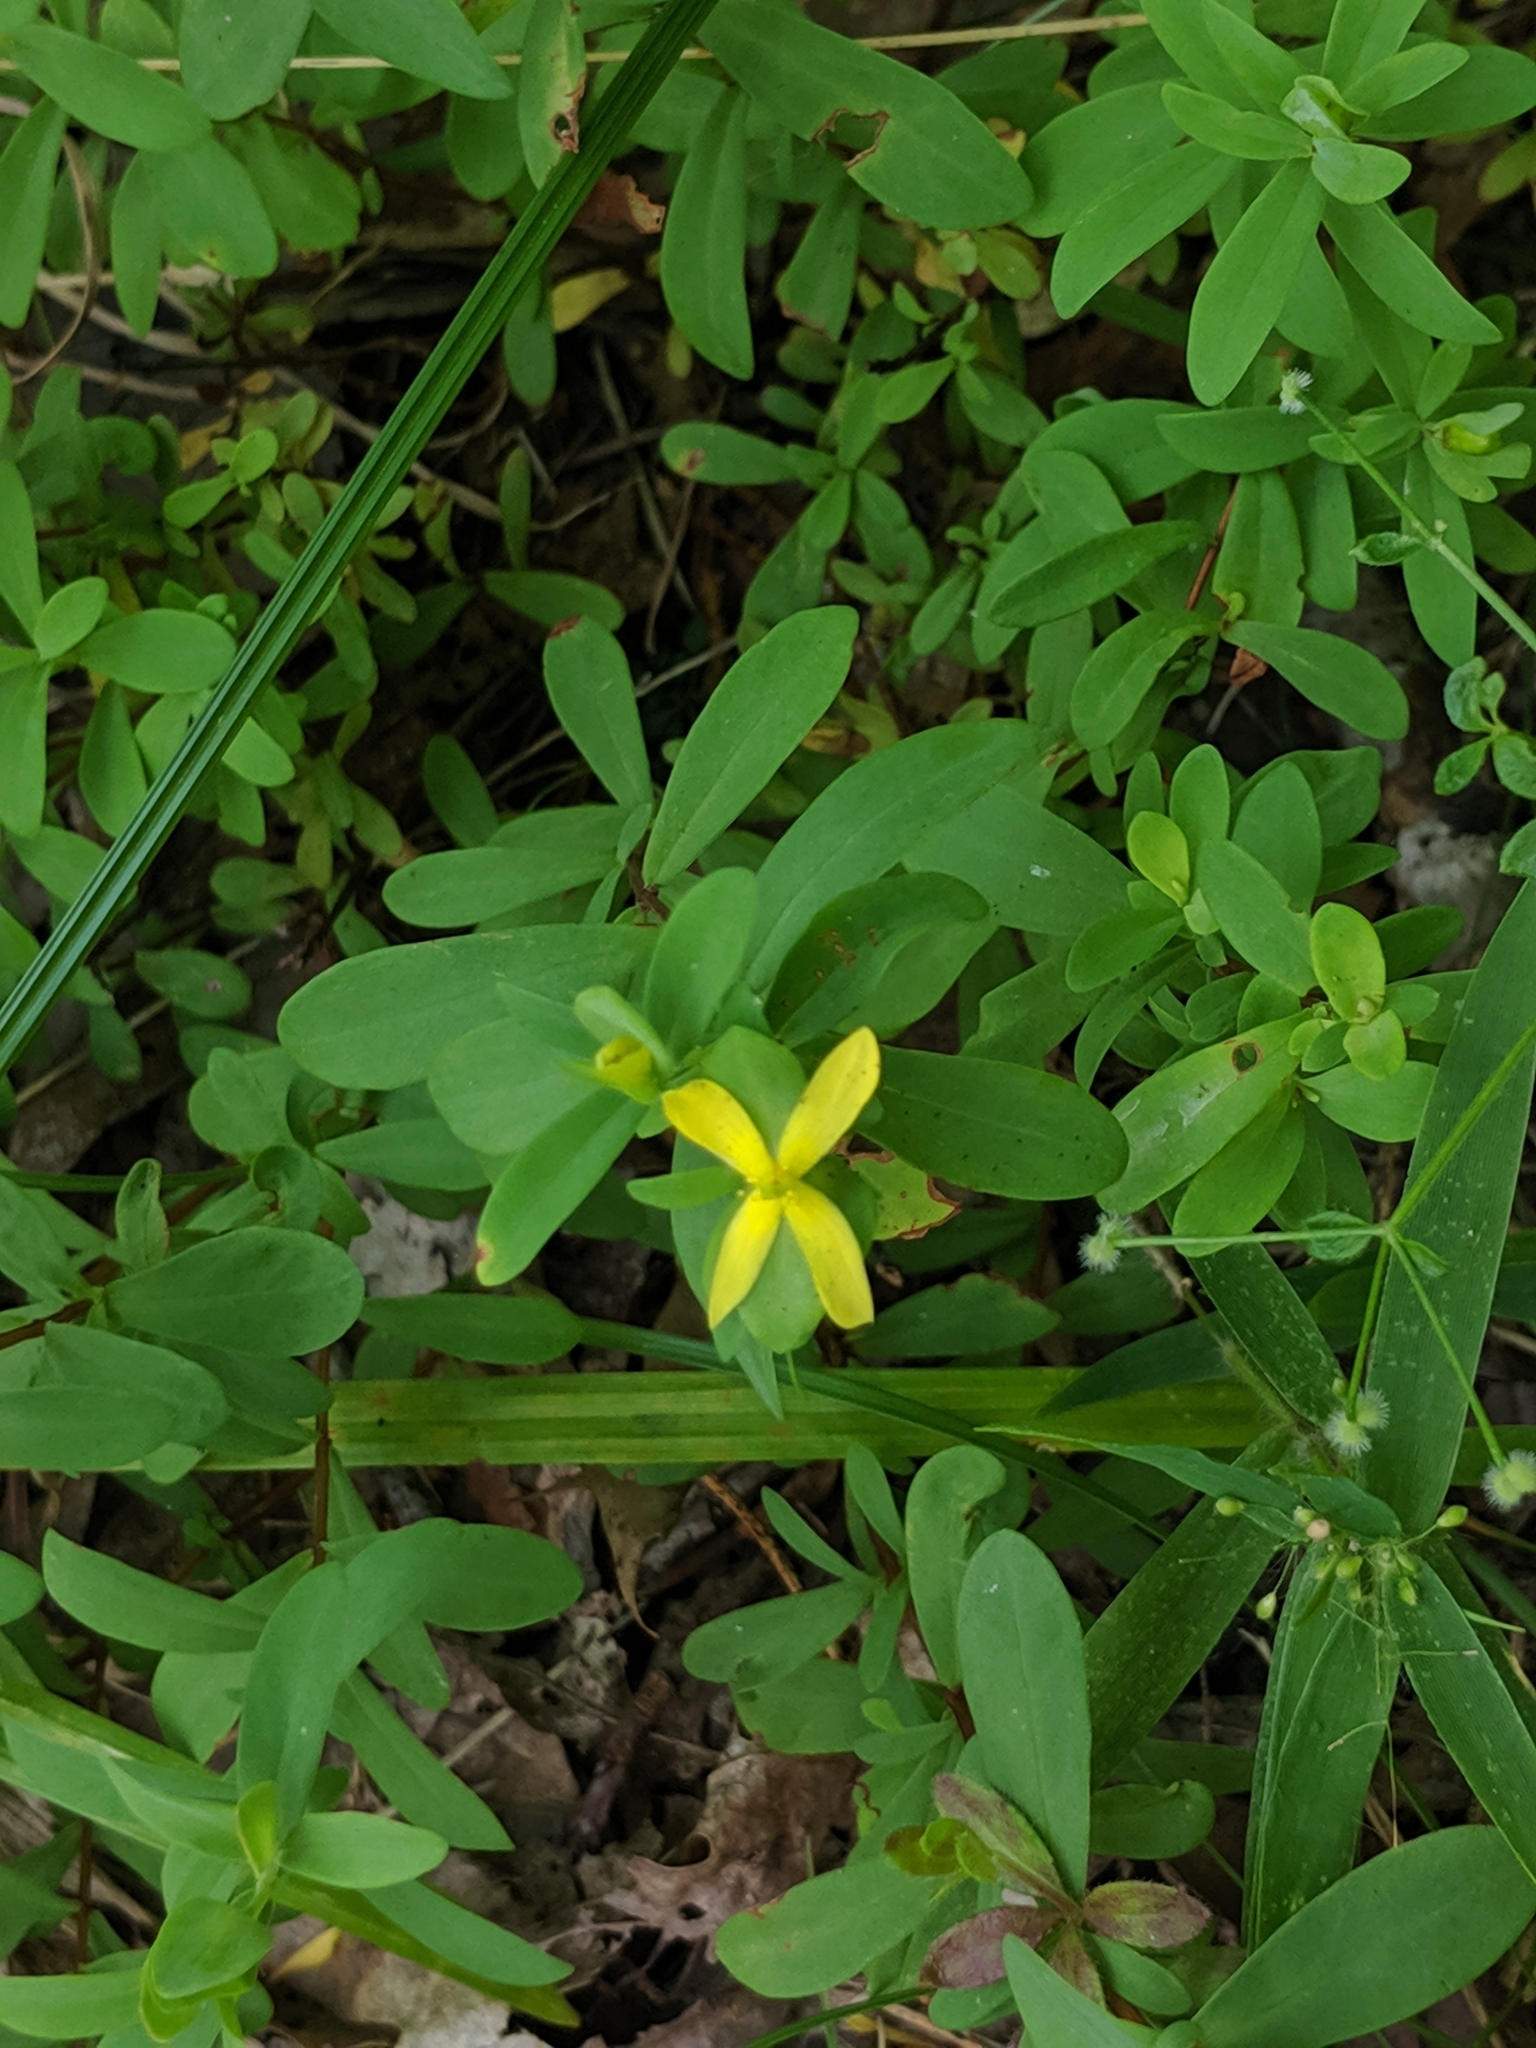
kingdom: Plantae
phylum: Tracheophyta
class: Magnoliopsida
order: Malpighiales
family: Hypericaceae
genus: Hypericum
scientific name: Hypericum hypericoides
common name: St. andrew's cross
